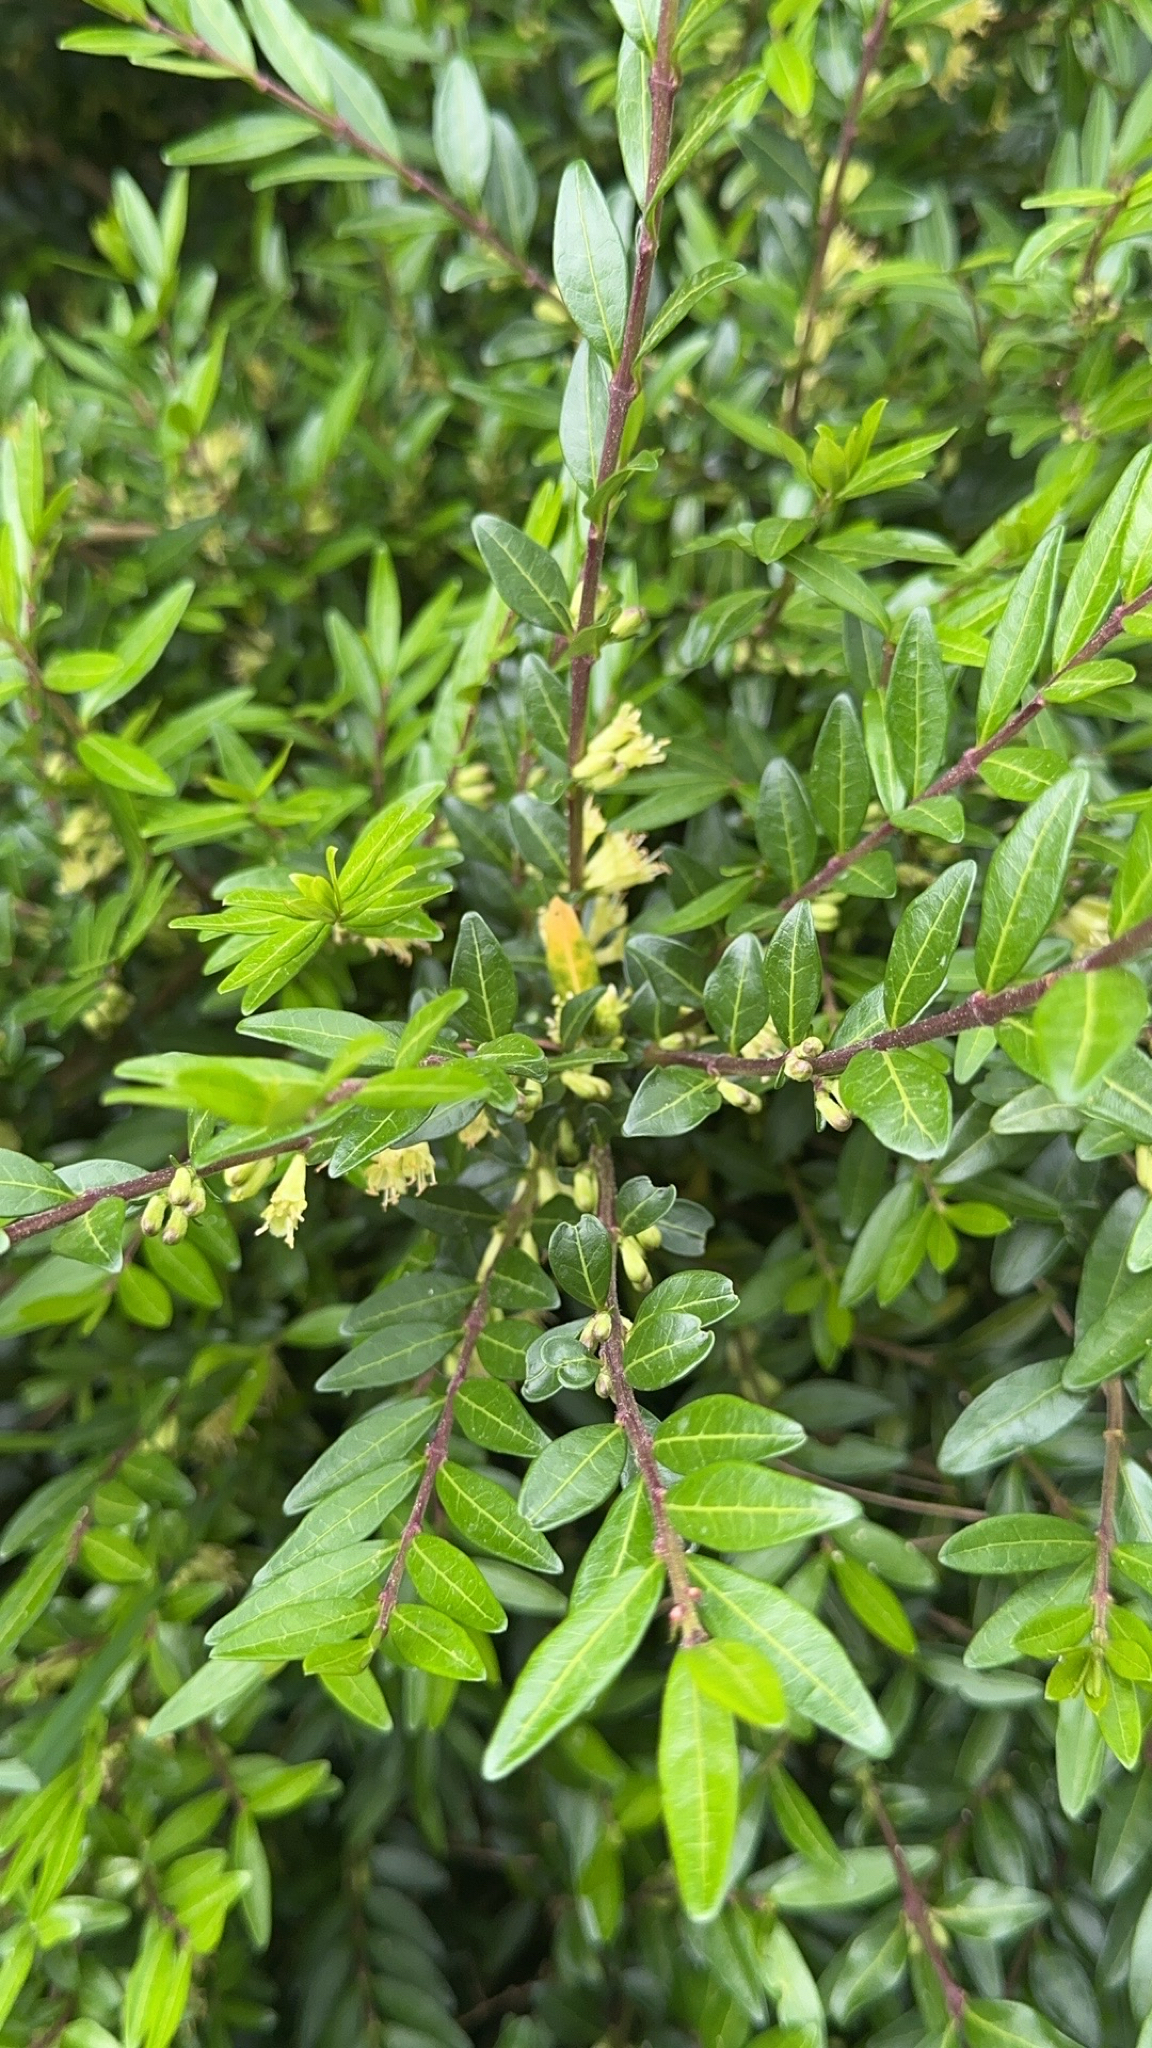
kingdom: Plantae
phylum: Tracheophyta
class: Magnoliopsida
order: Dipsacales
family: Caprifoliaceae
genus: Lonicera
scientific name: Lonicera ligustrina
